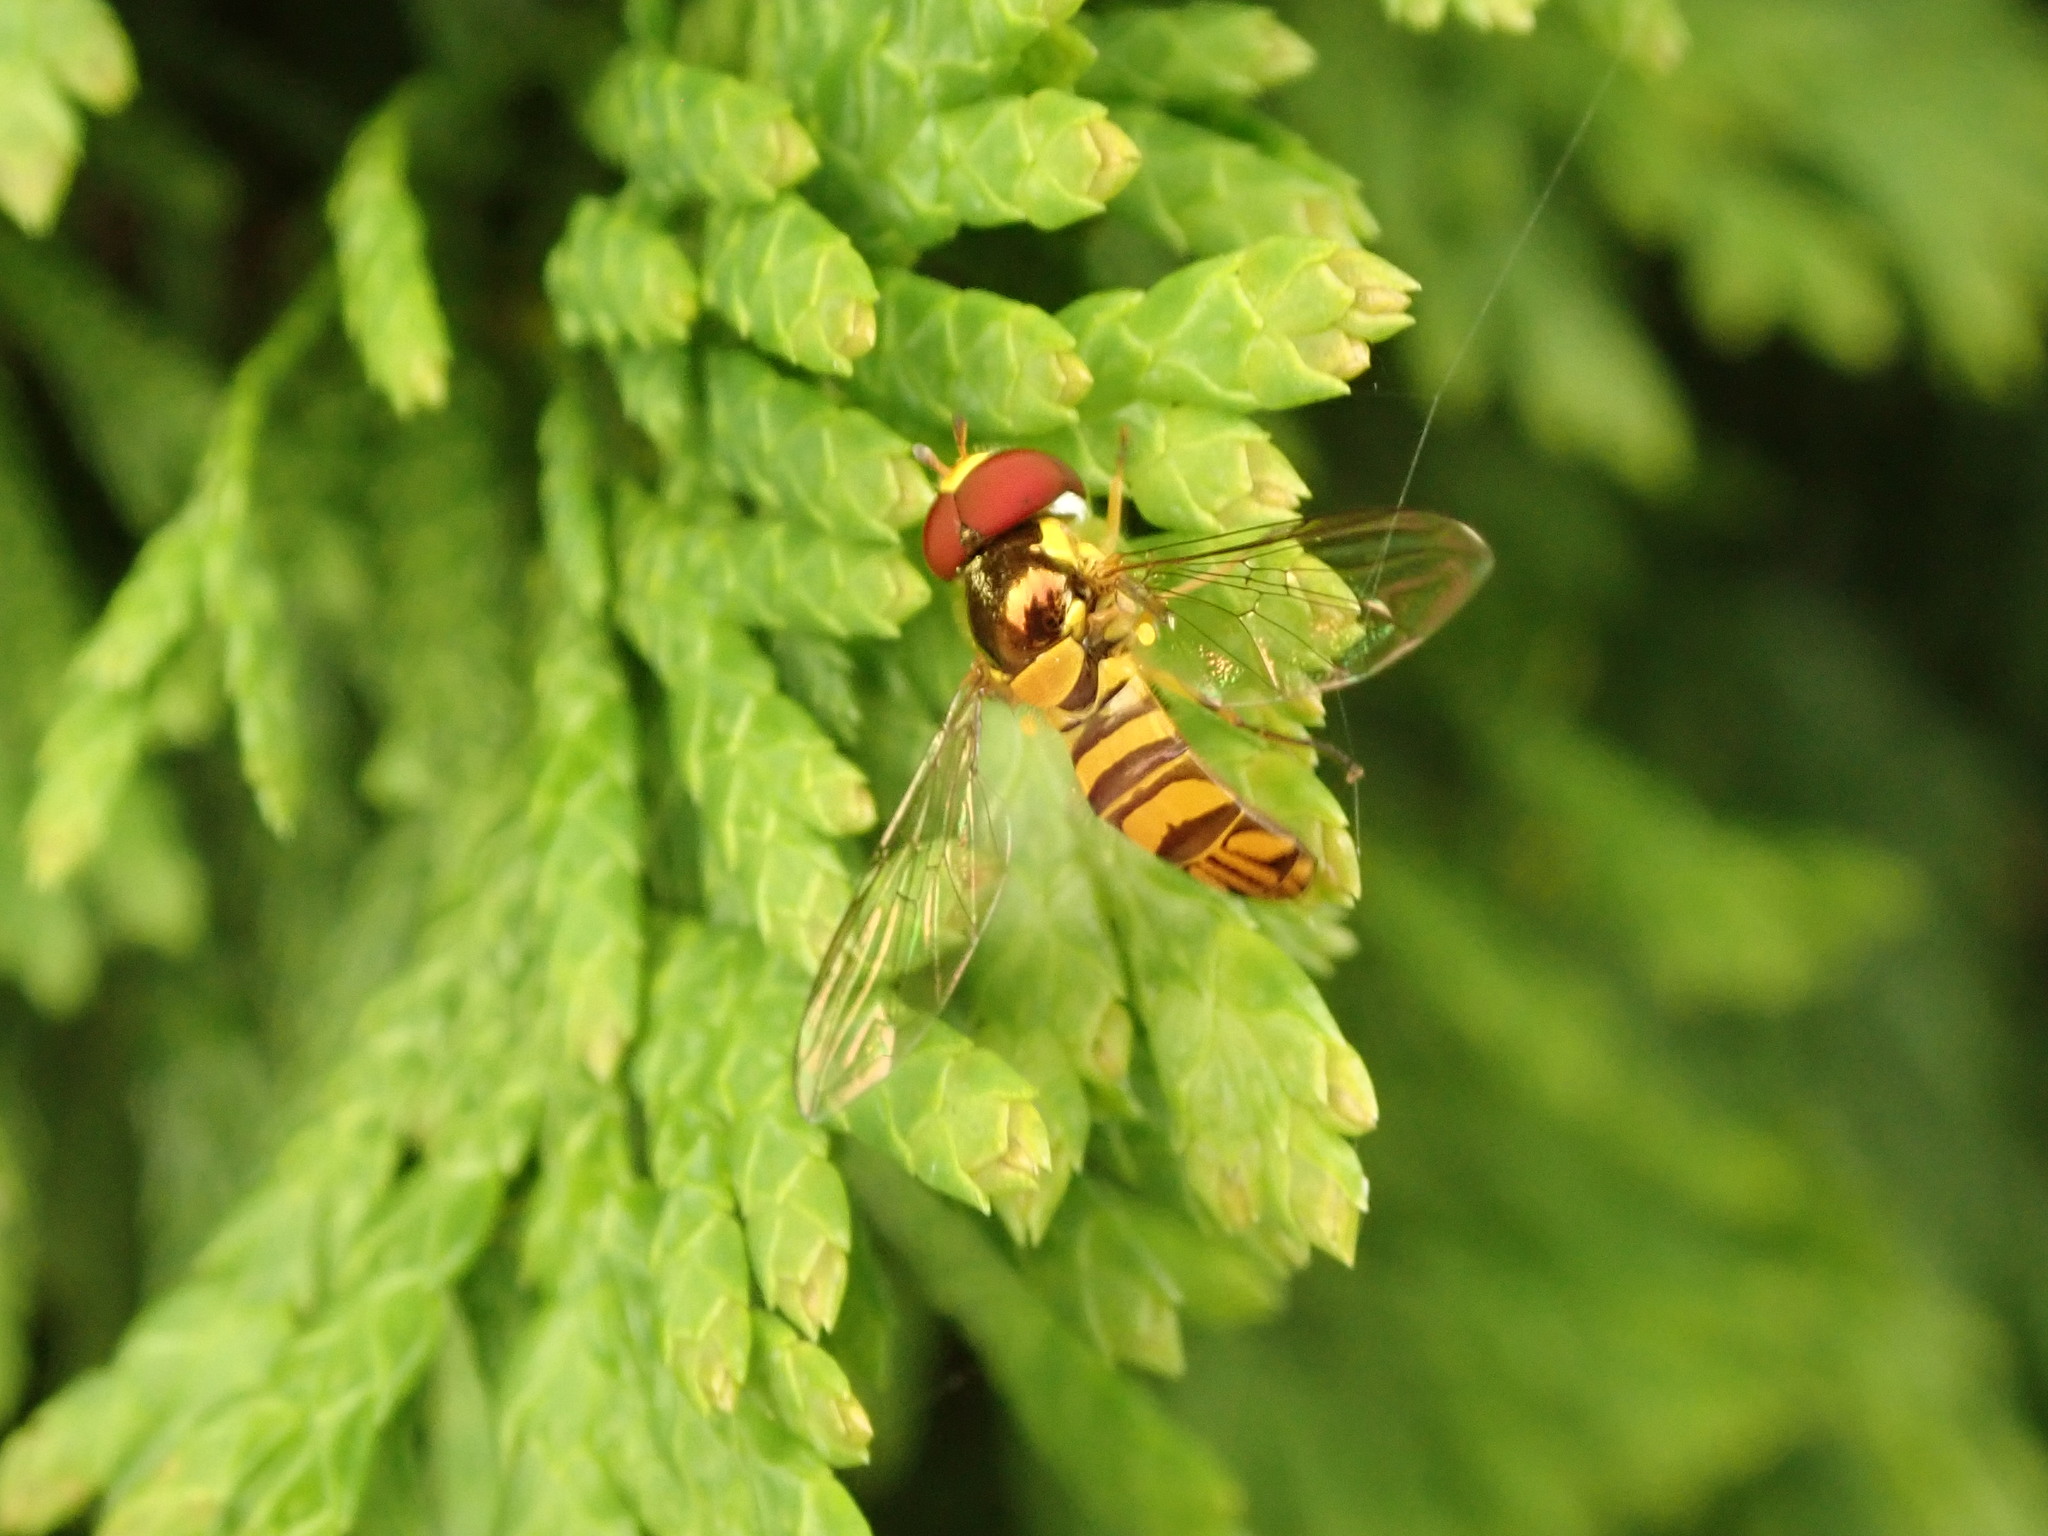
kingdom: Animalia
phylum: Arthropoda
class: Insecta
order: Diptera
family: Syrphidae
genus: Allograpta
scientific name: Allograpta obliqua
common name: Common oblique syrphid
